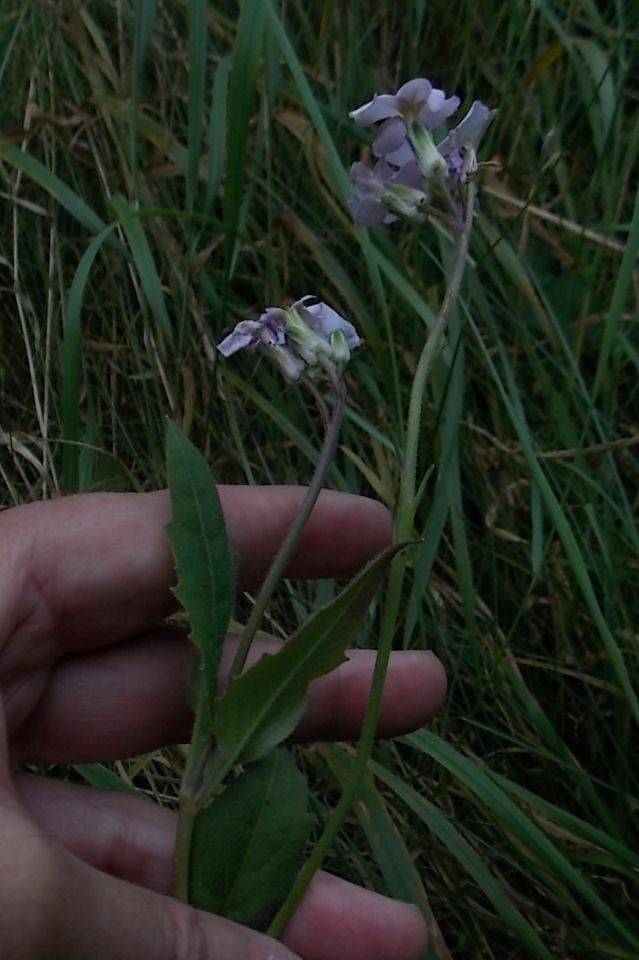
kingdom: Plantae
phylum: Tracheophyta
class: Magnoliopsida
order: Brassicales
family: Brassicaceae
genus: Hesperis
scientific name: Hesperis matronalis
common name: Dame's-violet
